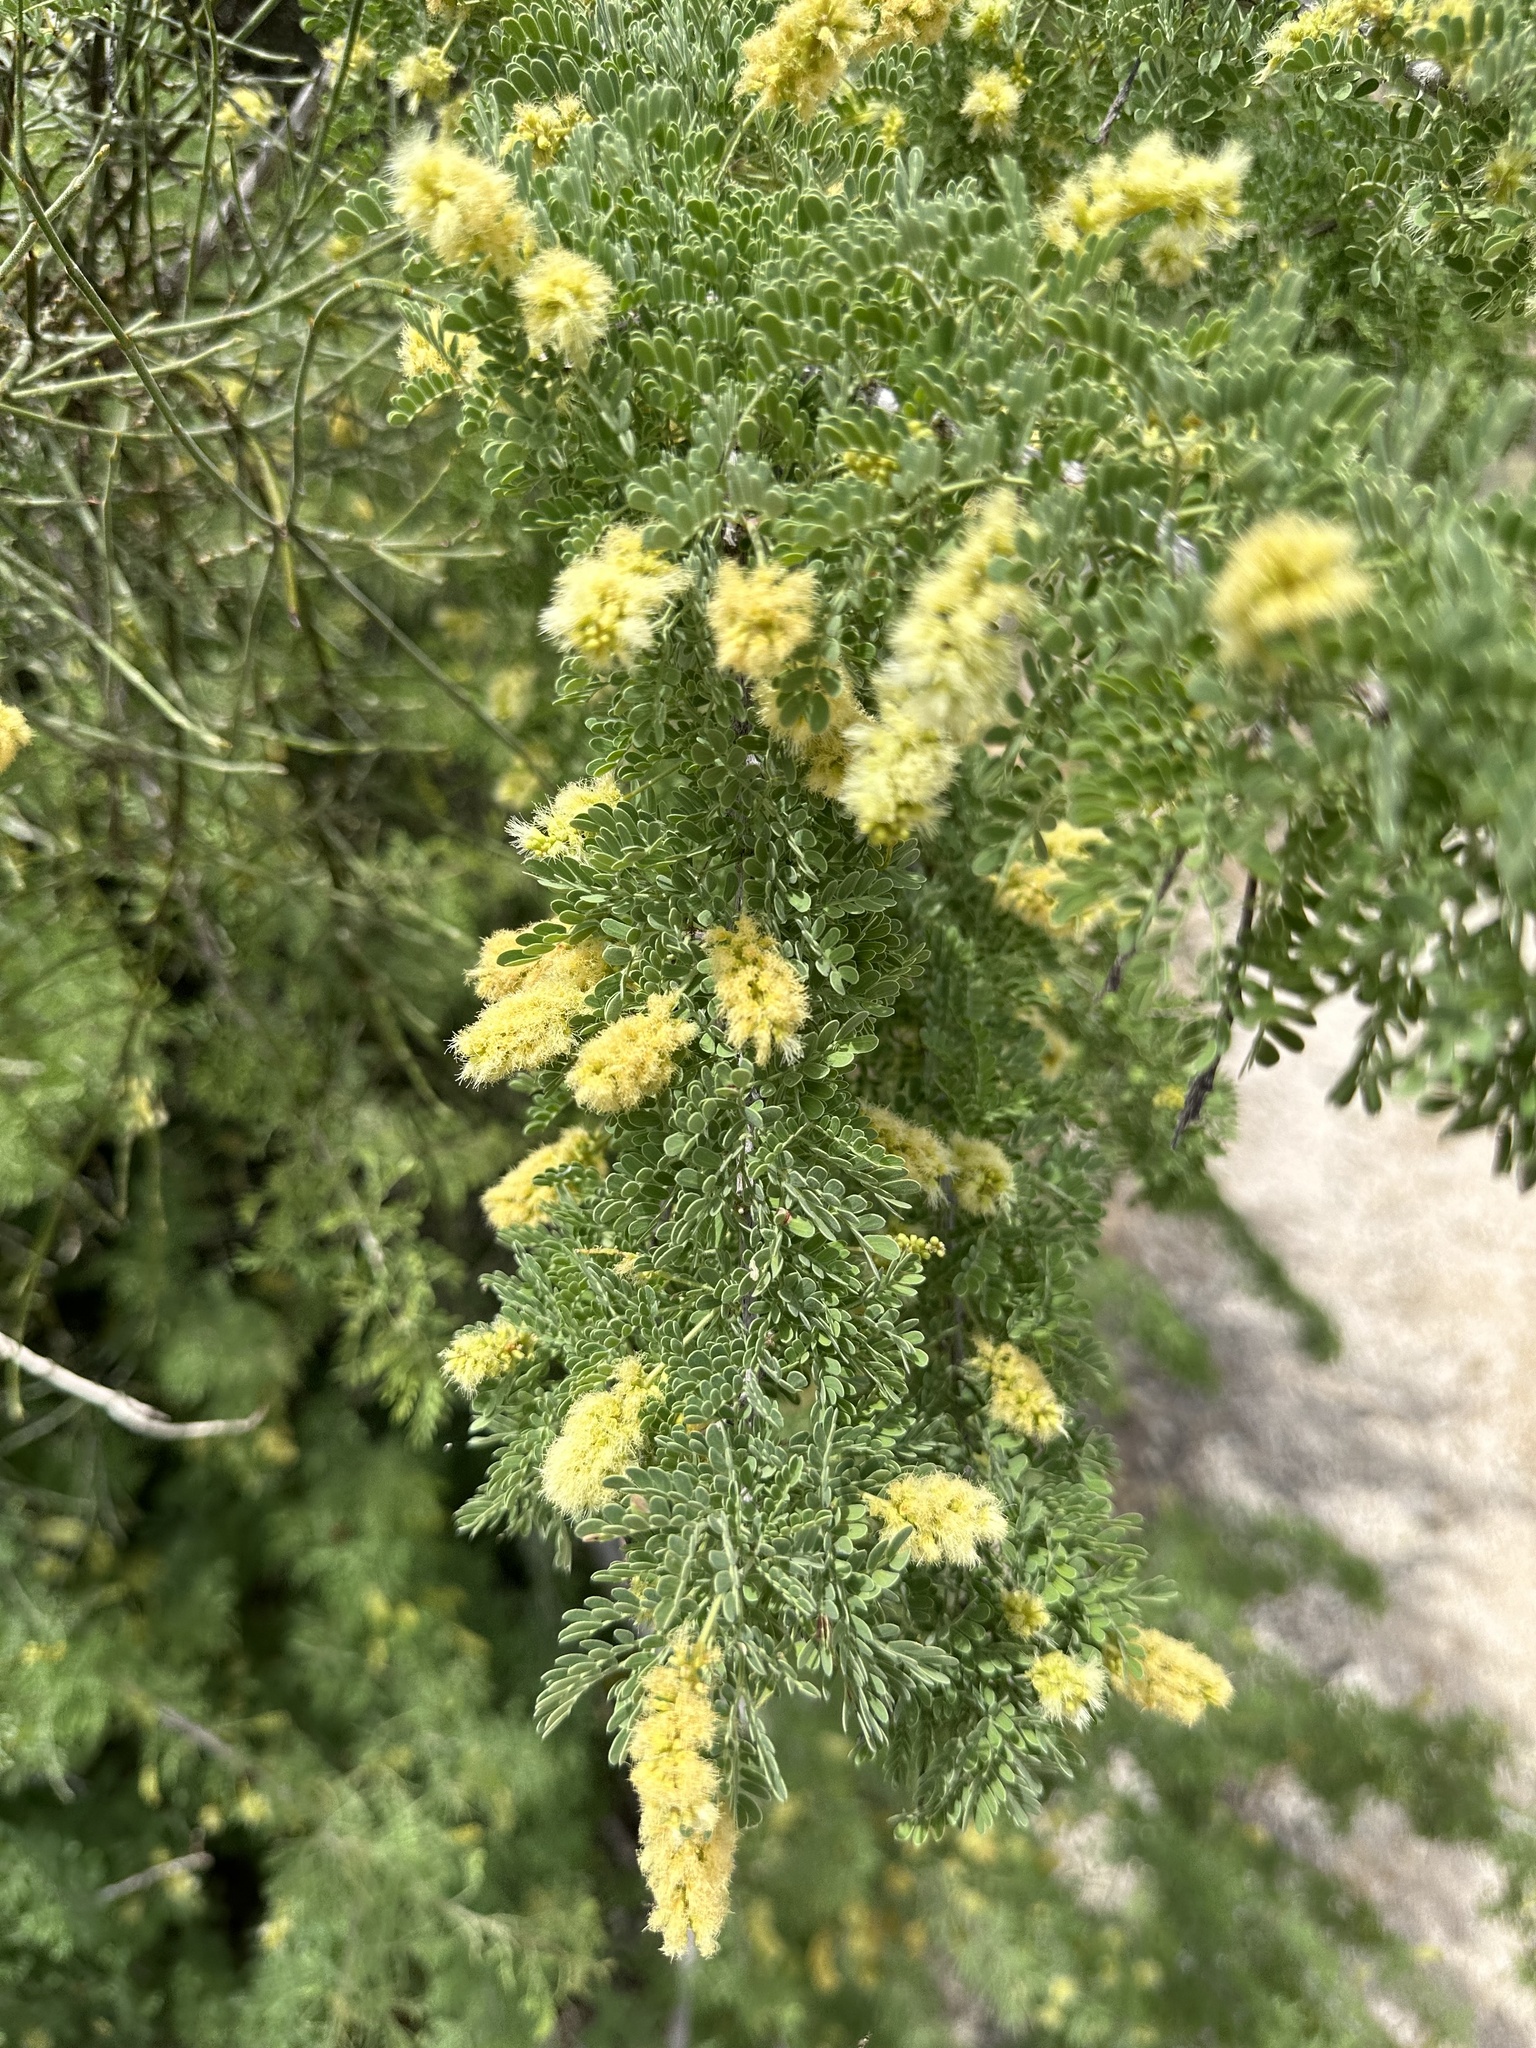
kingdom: Plantae
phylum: Tracheophyta
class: Magnoliopsida
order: Fabales
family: Fabaceae
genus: Senegalia
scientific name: Senegalia greggii
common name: Texas-mimosa
